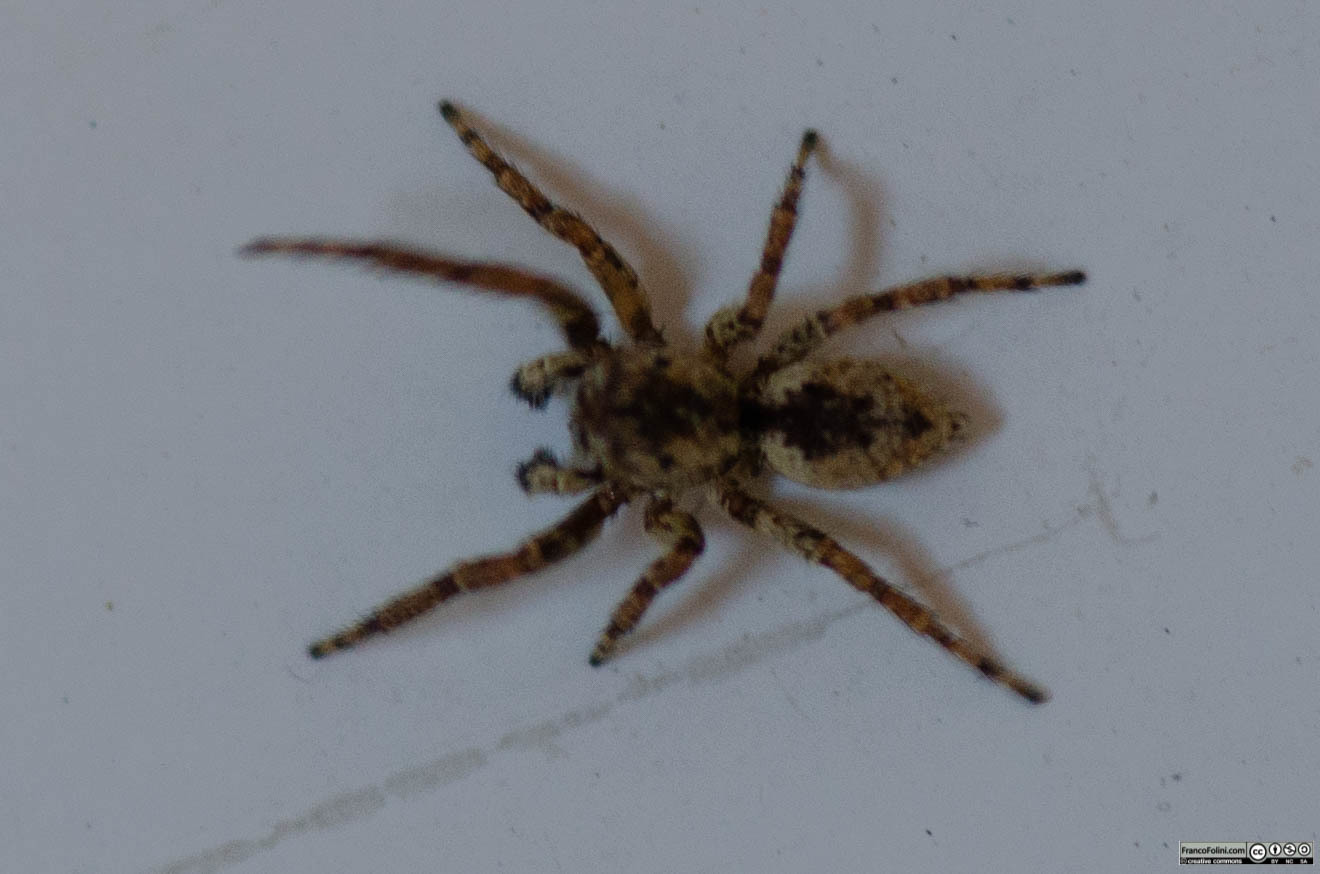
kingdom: Animalia
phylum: Arthropoda
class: Arachnida
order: Araneae
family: Salticidae
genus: Mexigonus
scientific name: Mexigonus minutus
